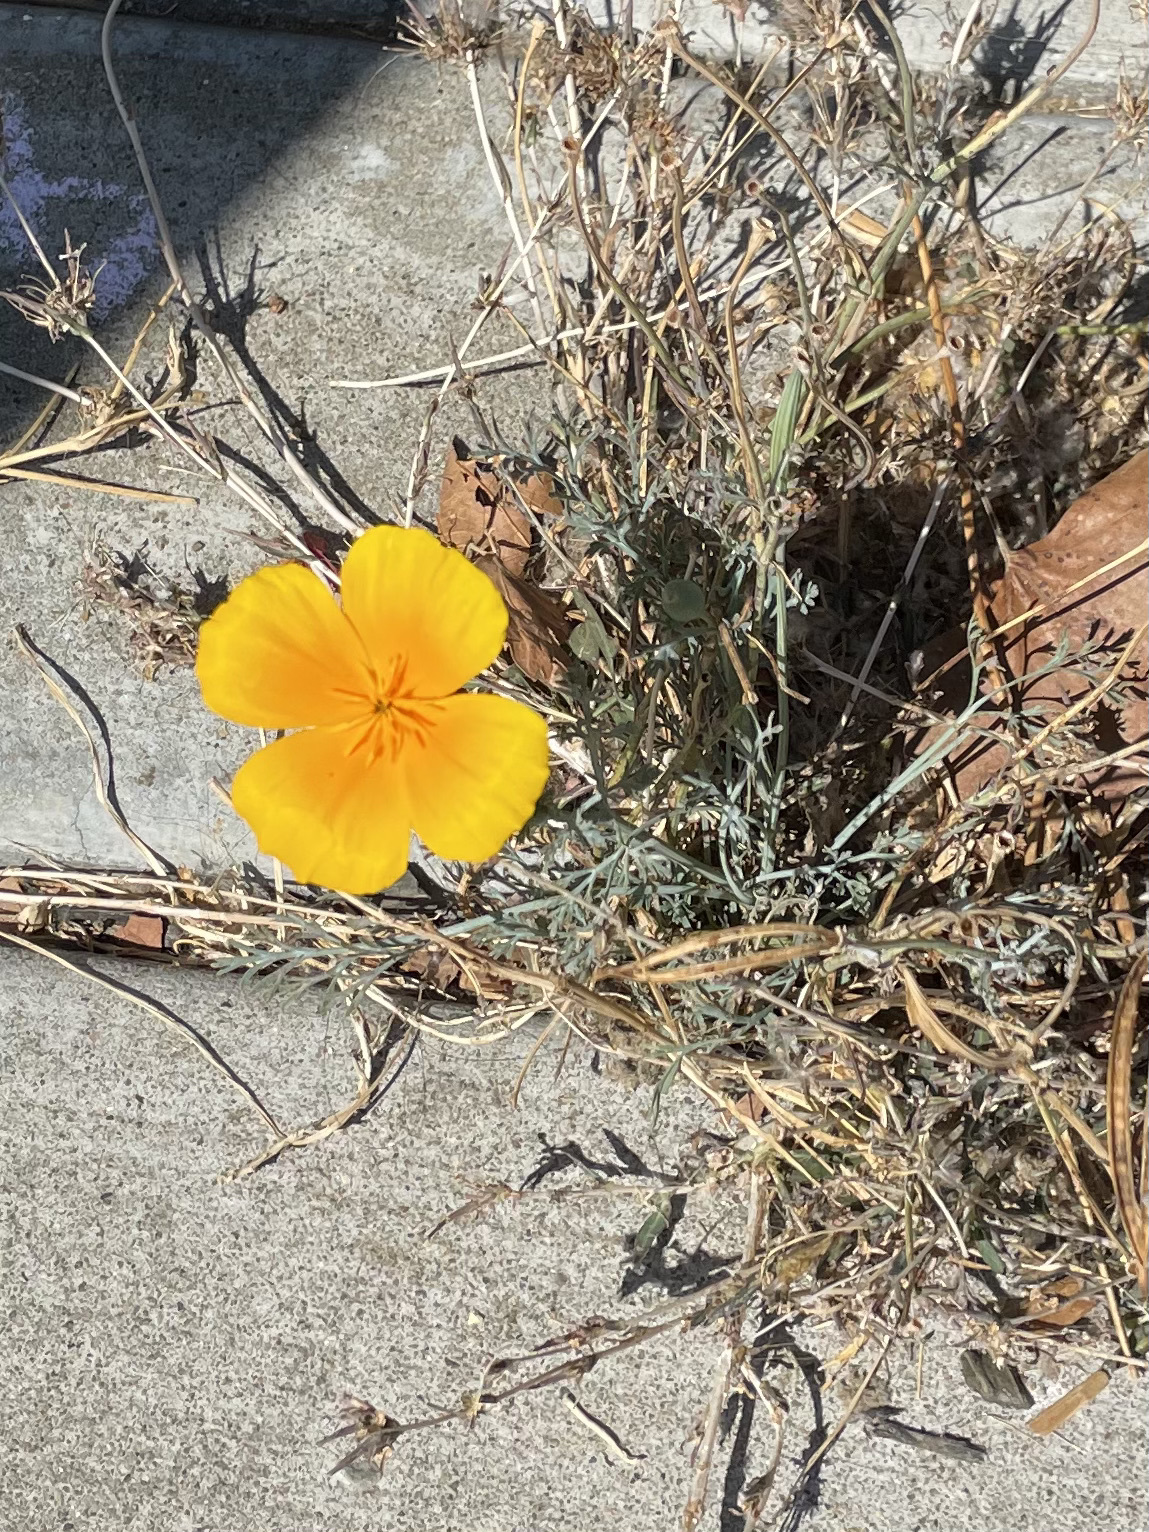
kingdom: Plantae
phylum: Tracheophyta
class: Magnoliopsida
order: Ranunculales
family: Papaveraceae
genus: Eschscholzia
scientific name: Eschscholzia californica
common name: California poppy
